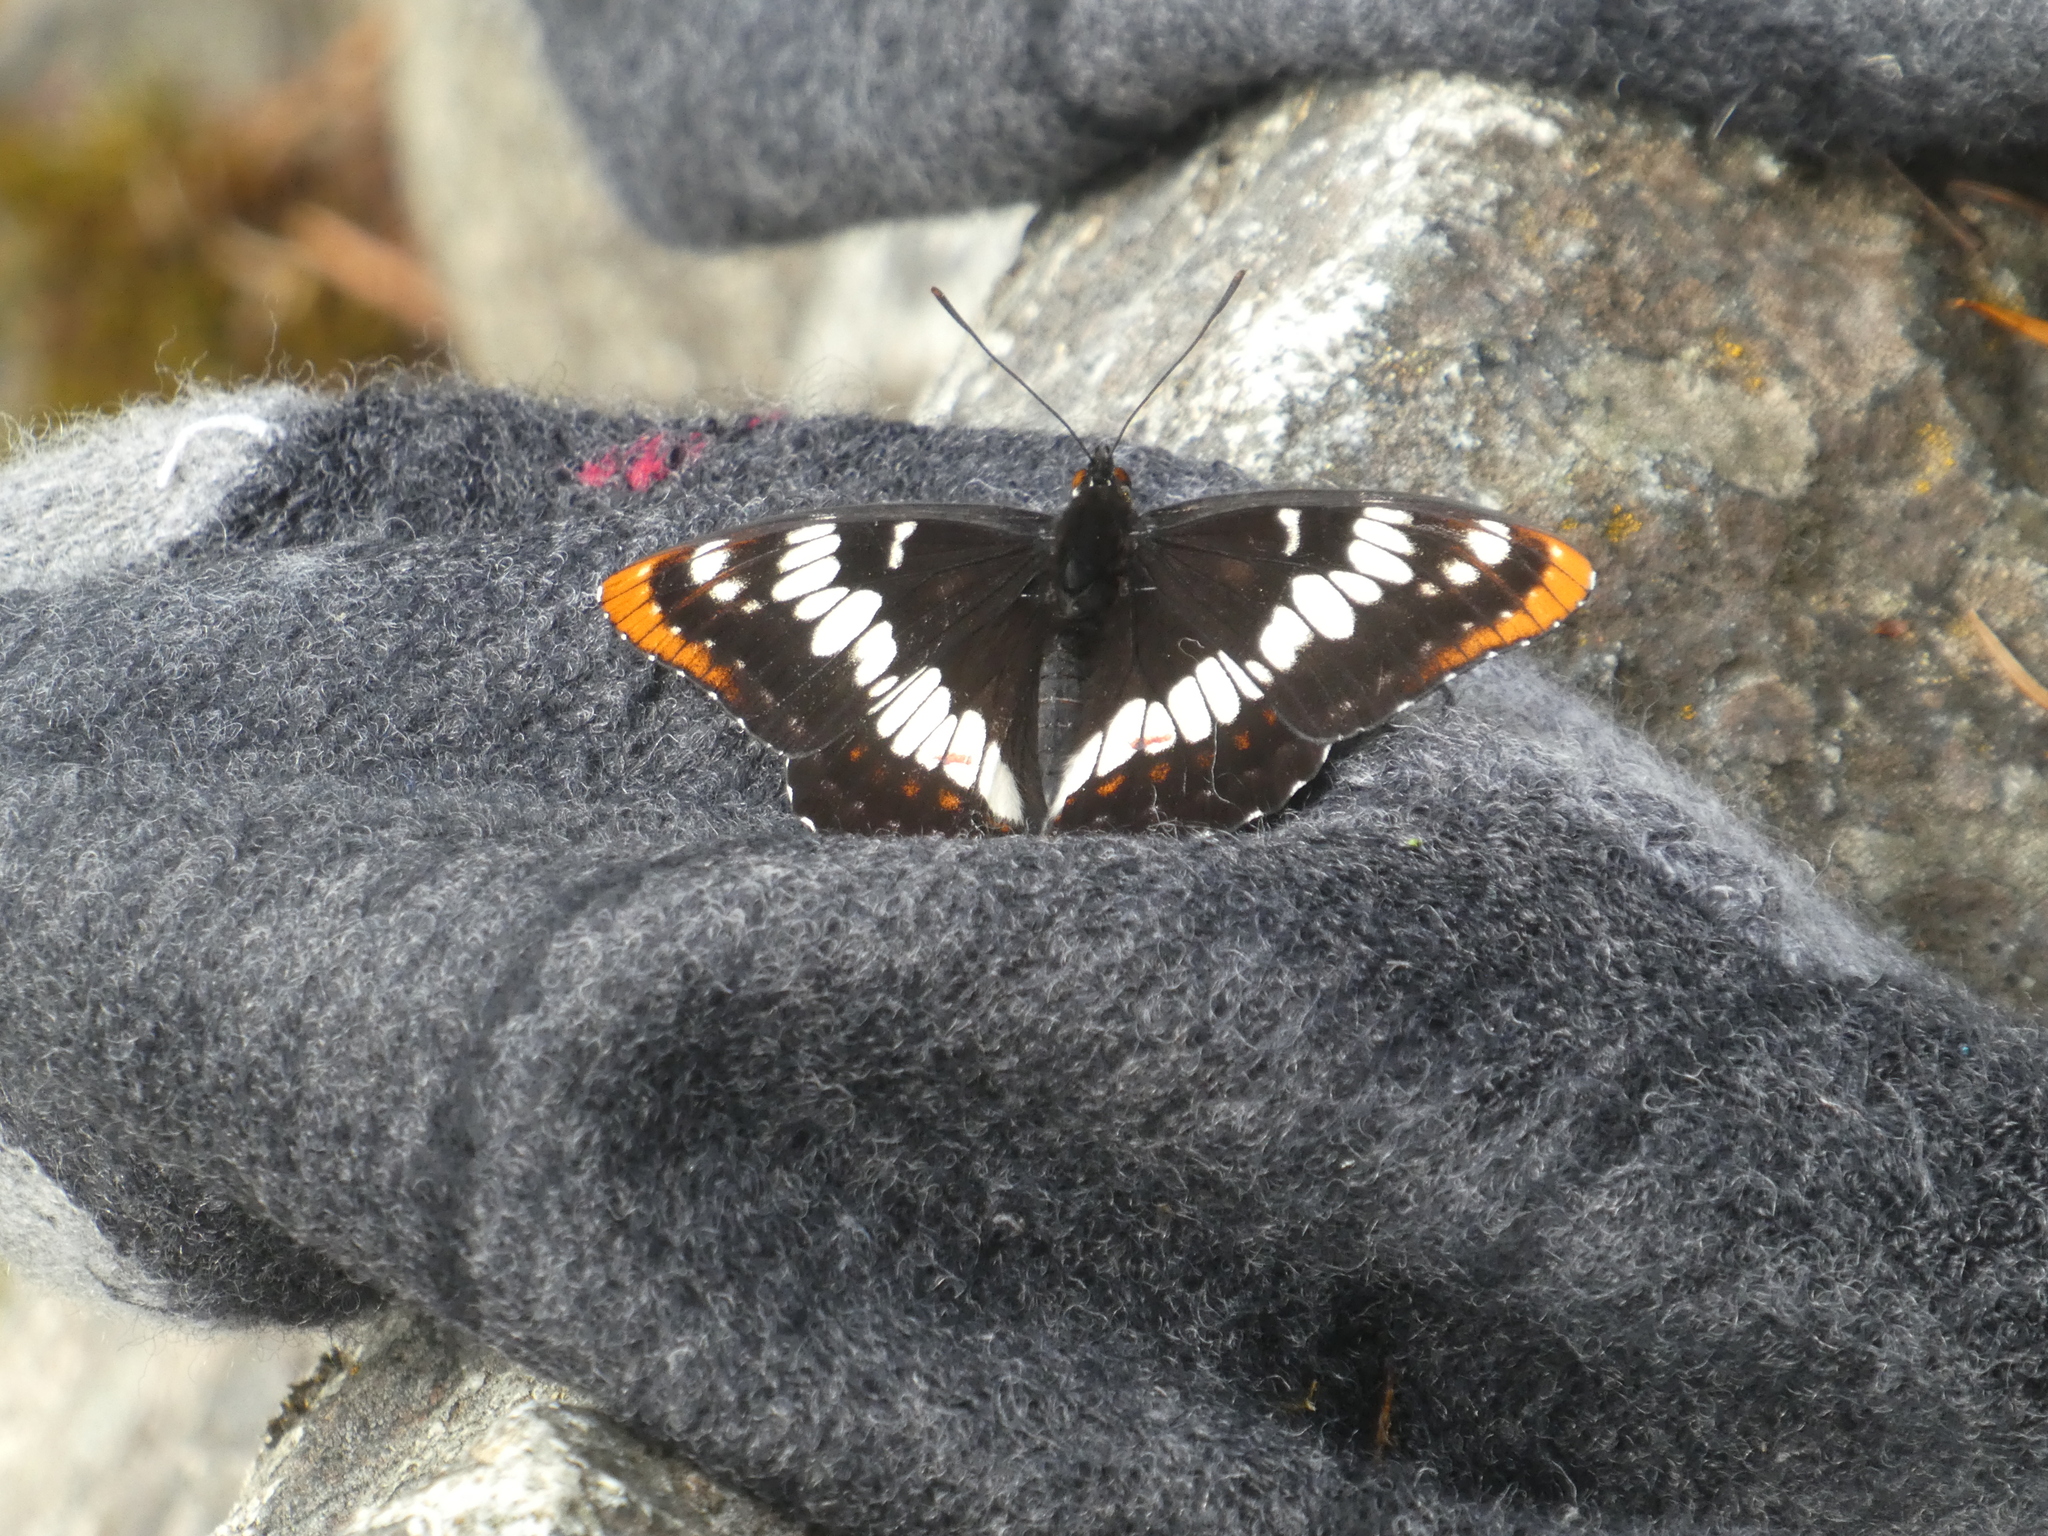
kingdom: Animalia
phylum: Arthropoda
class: Insecta
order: Lepidoptera
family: Nymphalidae
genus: Limenitis
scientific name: Limenitis lorquini
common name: Lorquin's admiral
